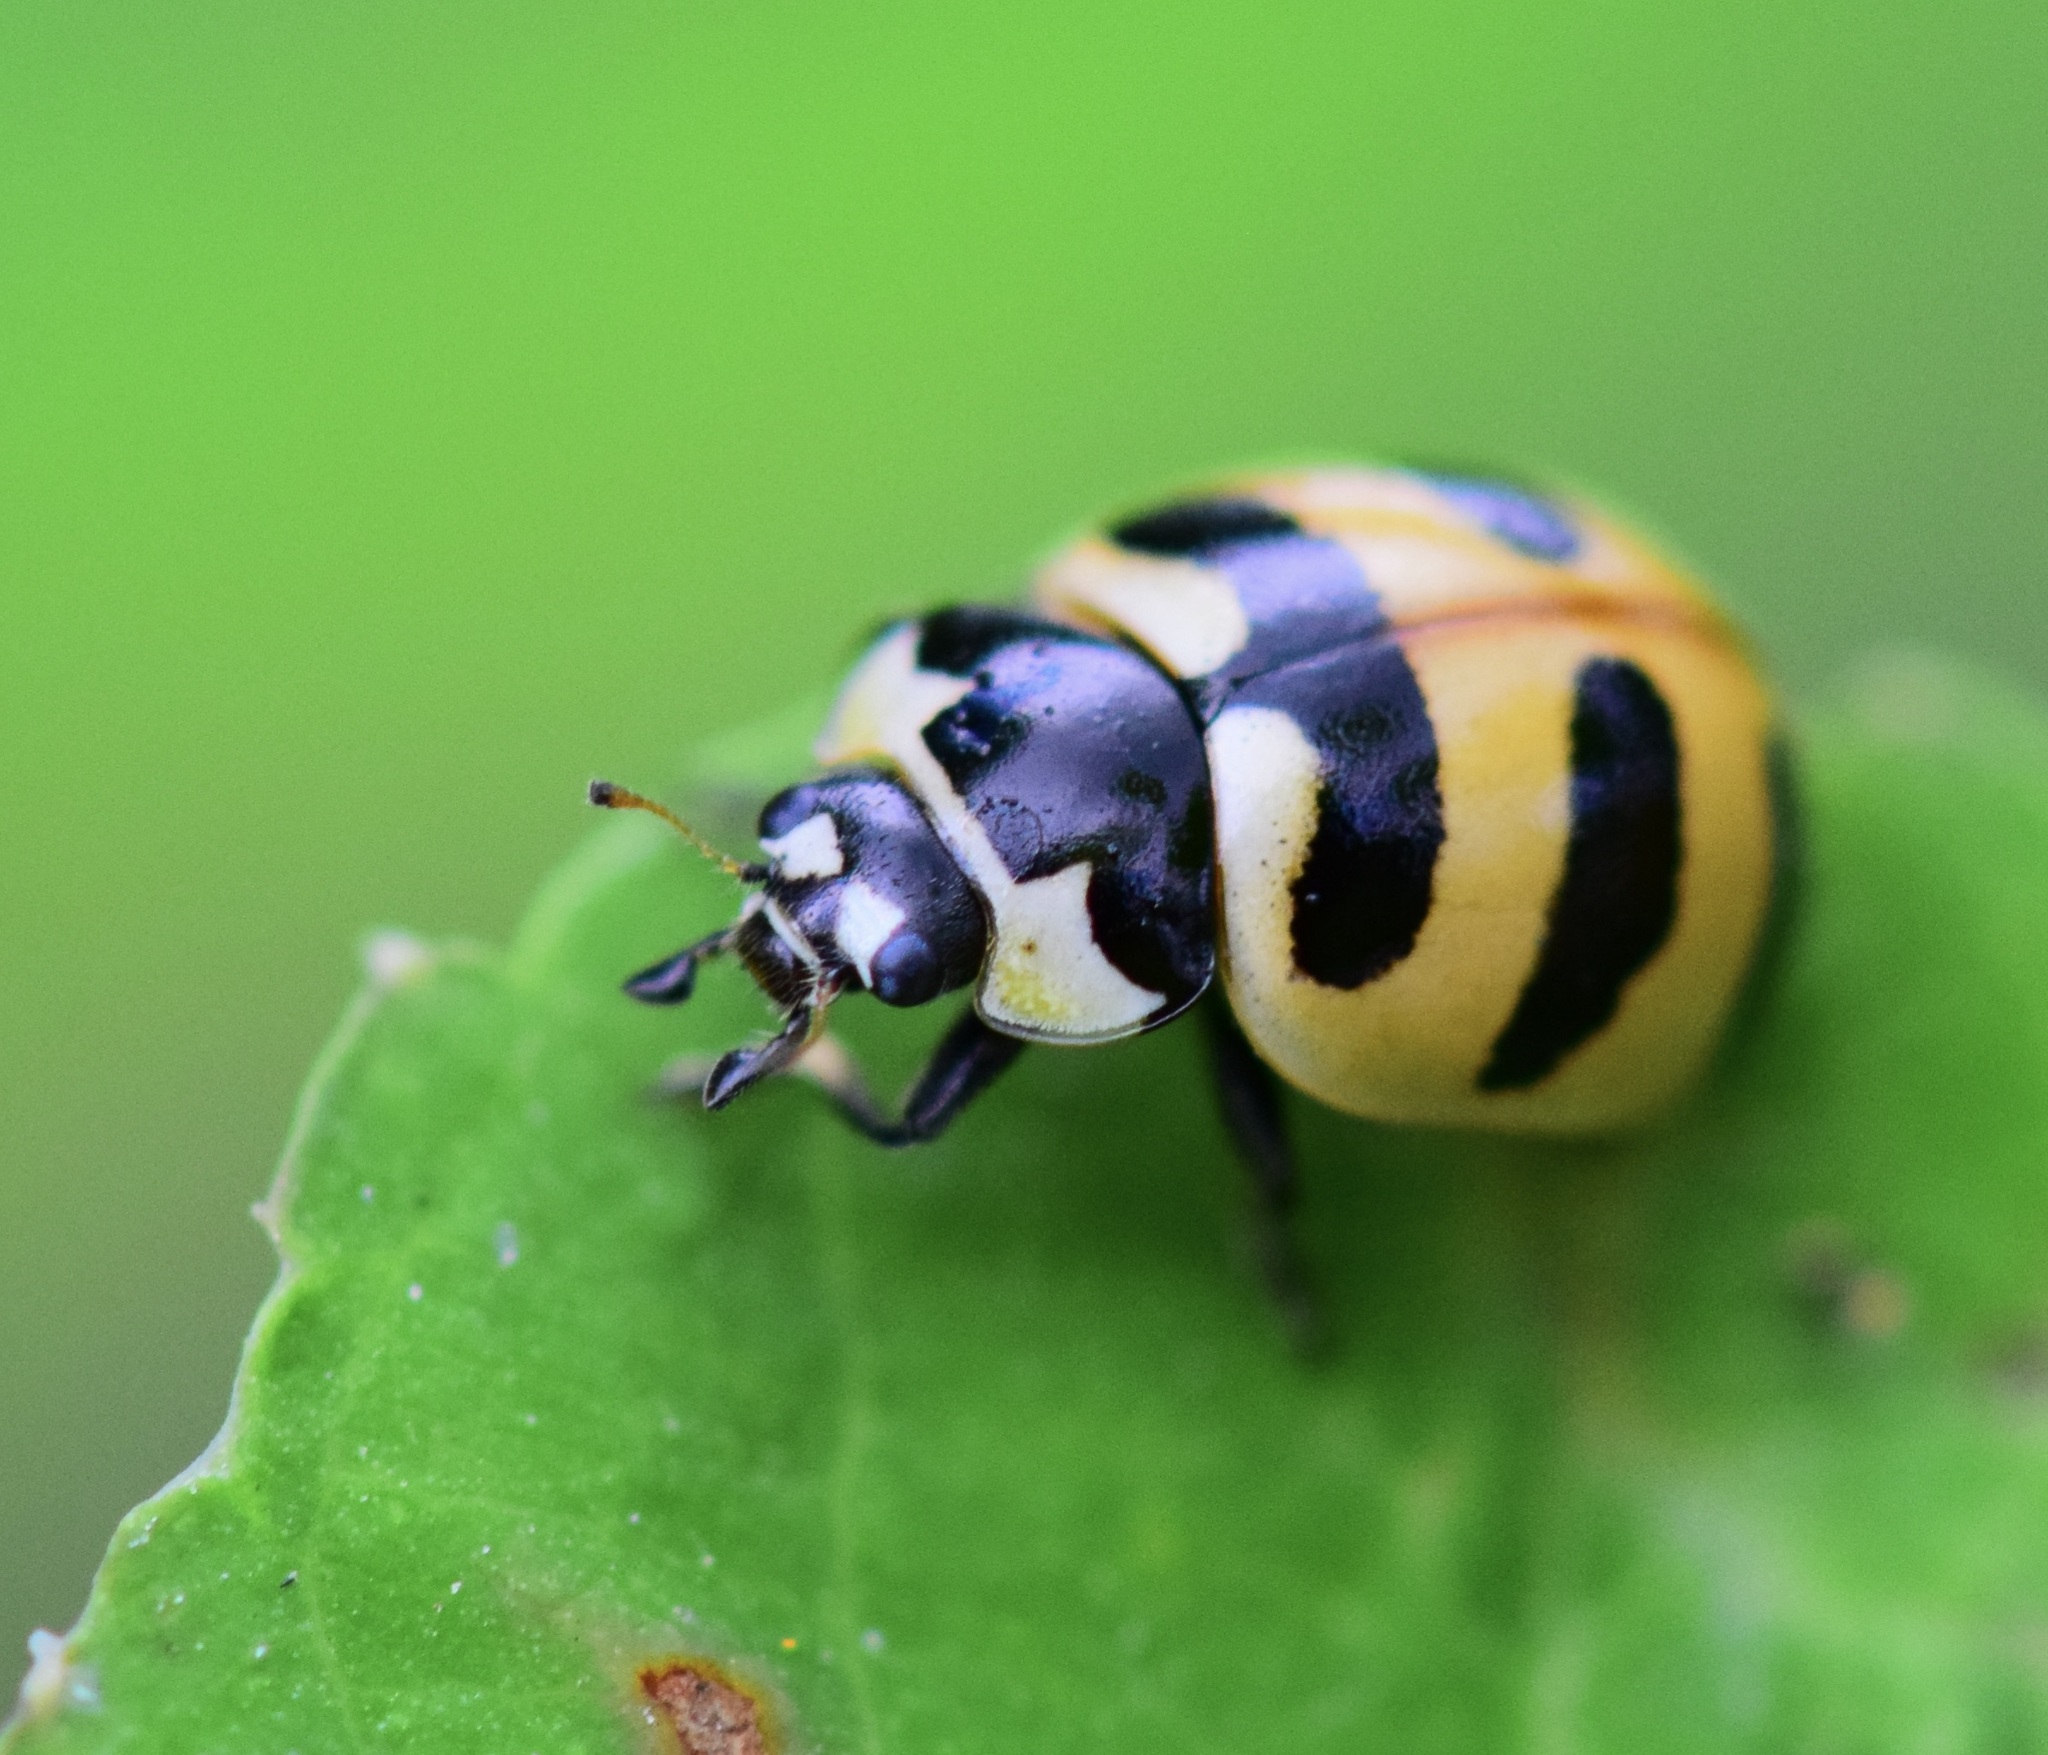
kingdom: Animalia
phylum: Arthropoda
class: Insecta
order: Coleoptera
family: Coccinellidae
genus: Coccinella
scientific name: Coccinella trifasciata
